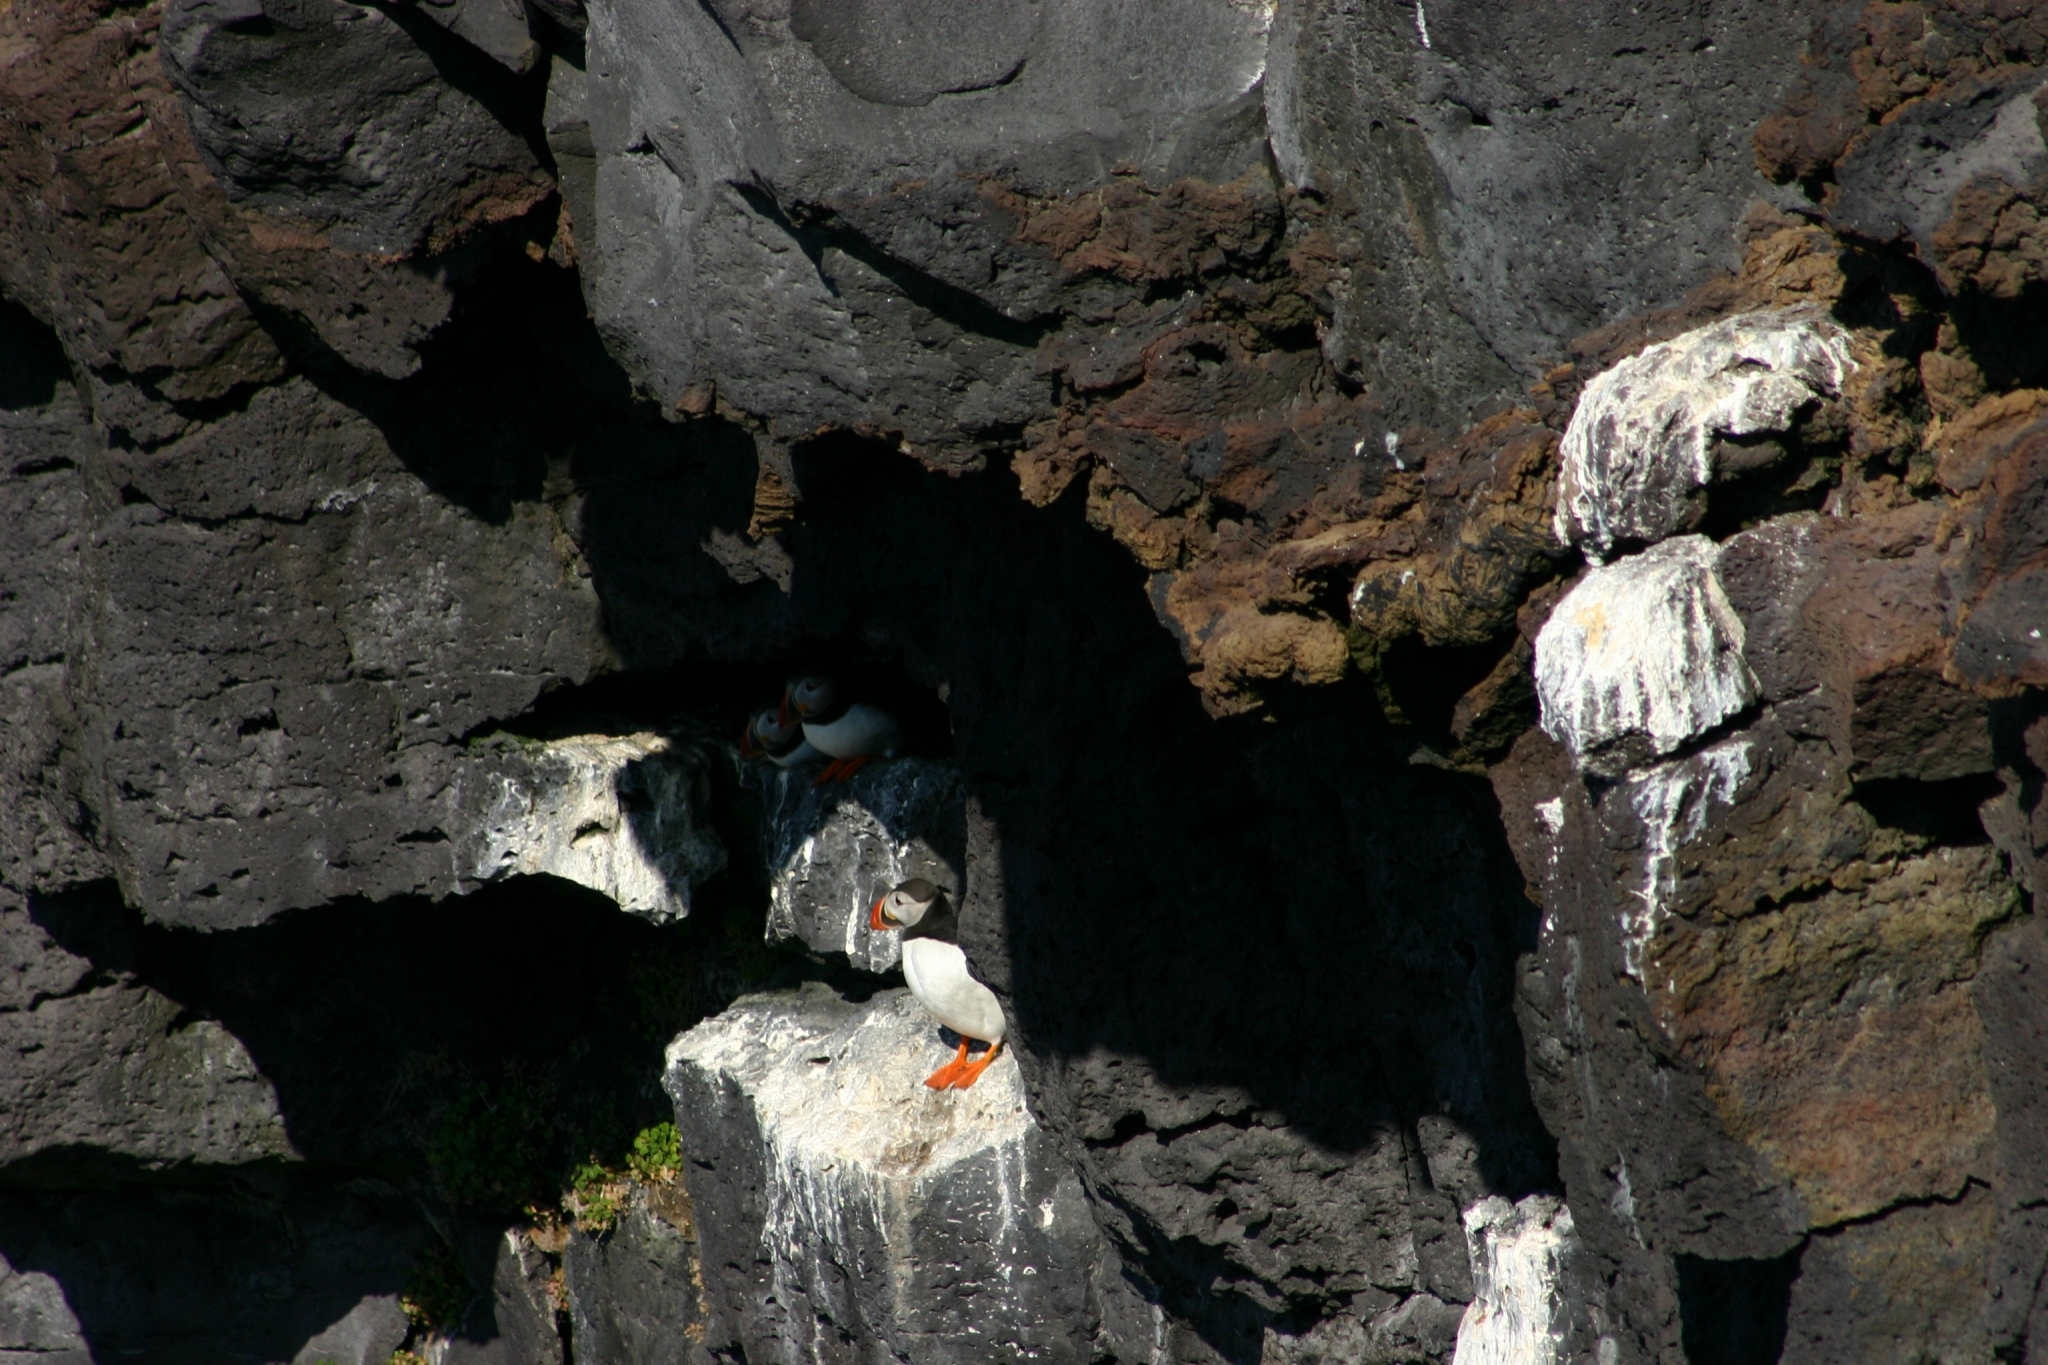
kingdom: Animalia
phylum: Chordata
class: Aves
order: Charadriiformes
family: Alcidae
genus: Fratercula
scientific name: Fratercula arctica
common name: Atlantic puffin
